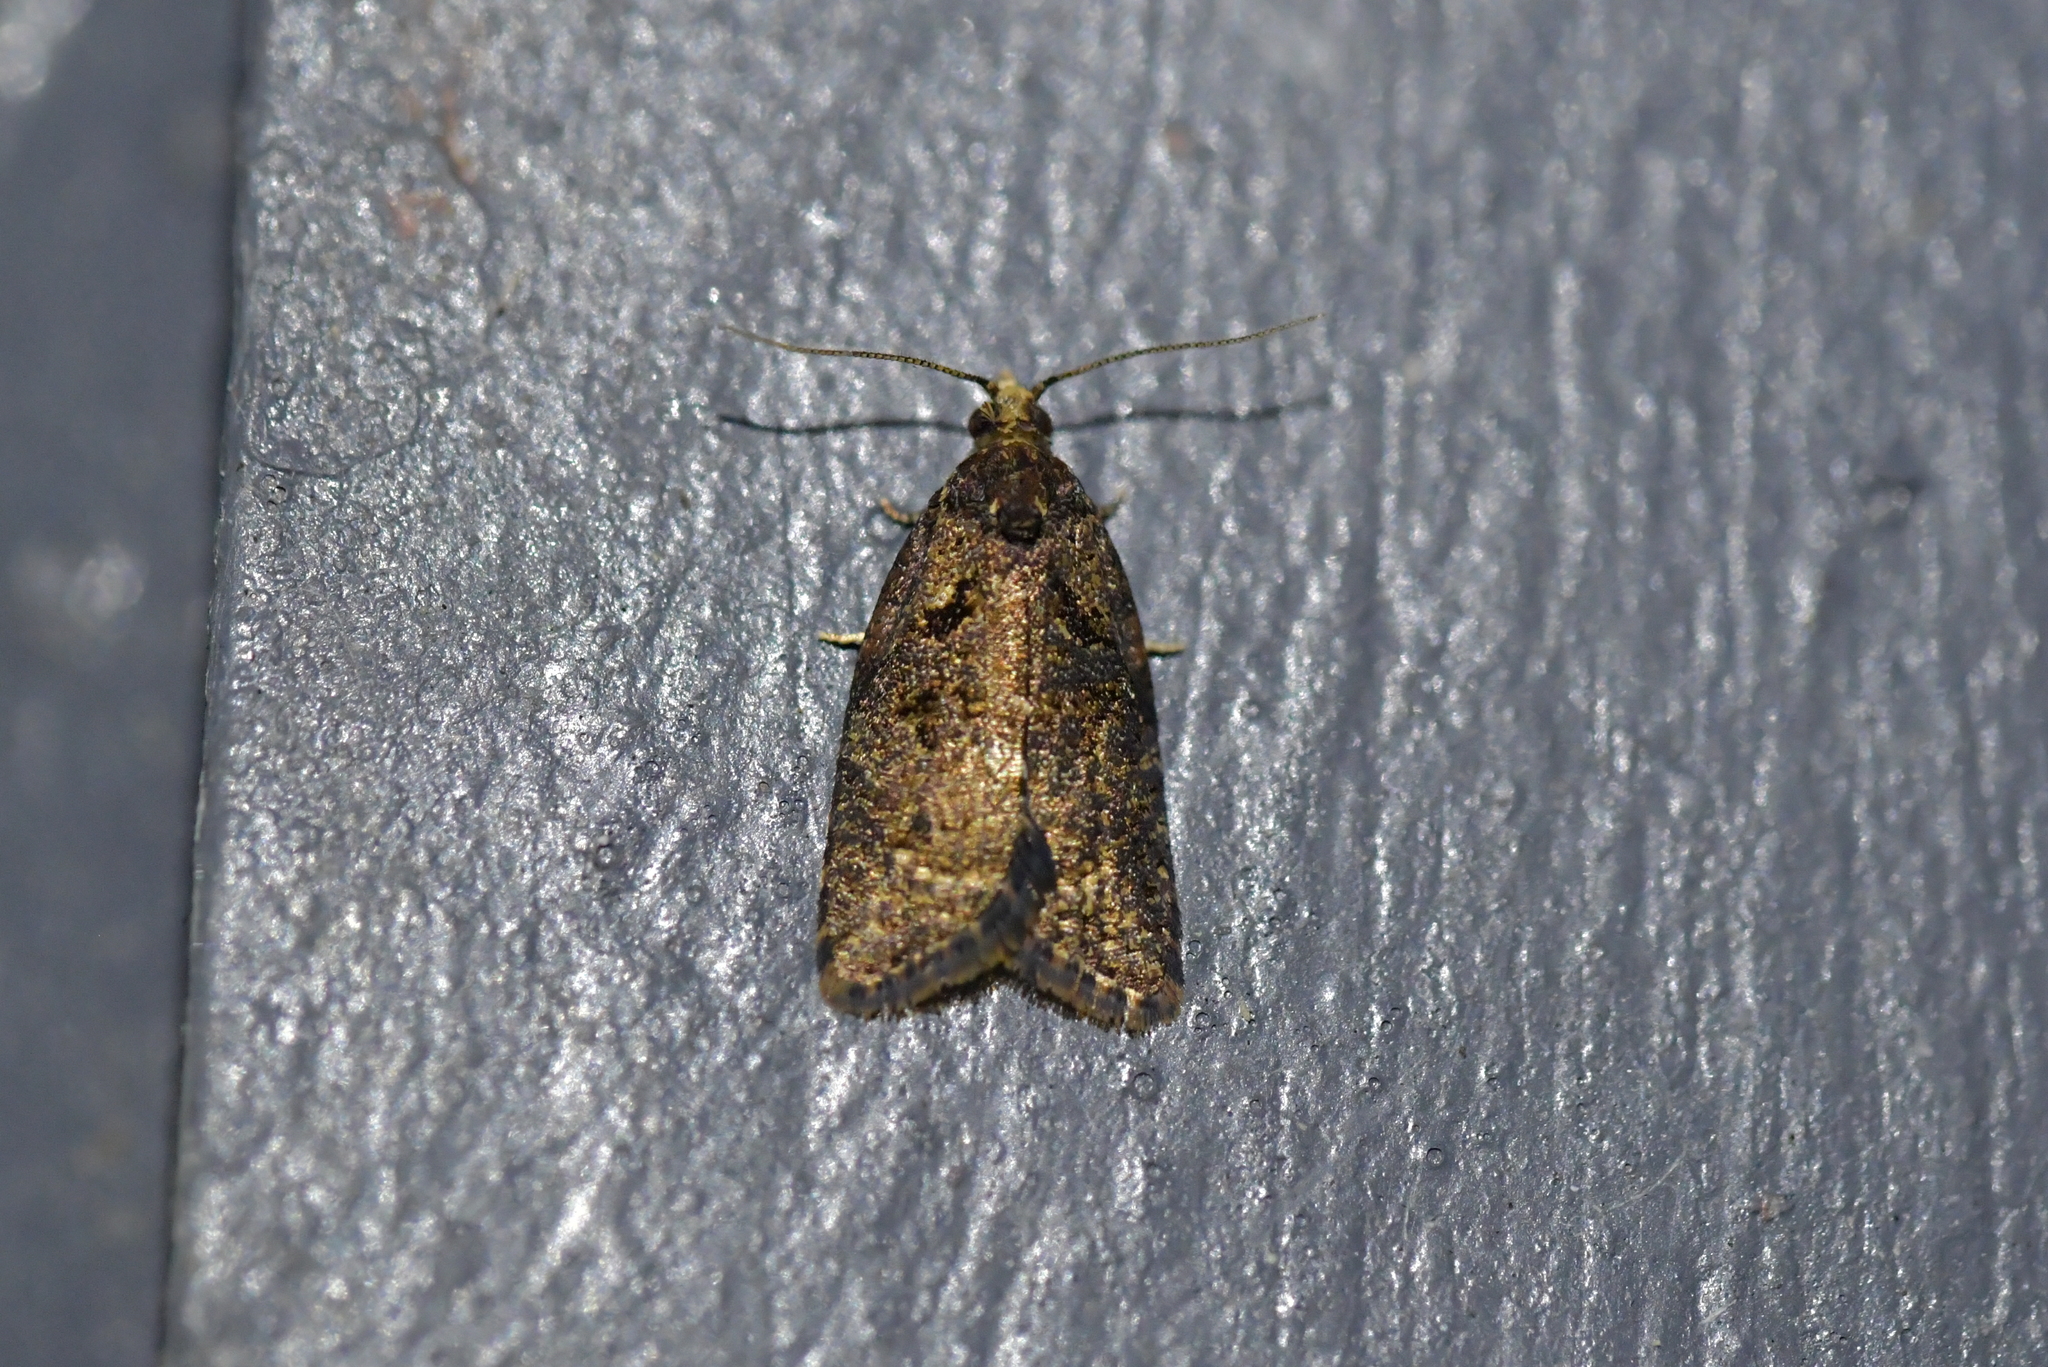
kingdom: Animalia
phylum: Arthropoda
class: Insecta
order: Lepidoptera
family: Tortricidae
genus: Capua
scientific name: Capua intractana
